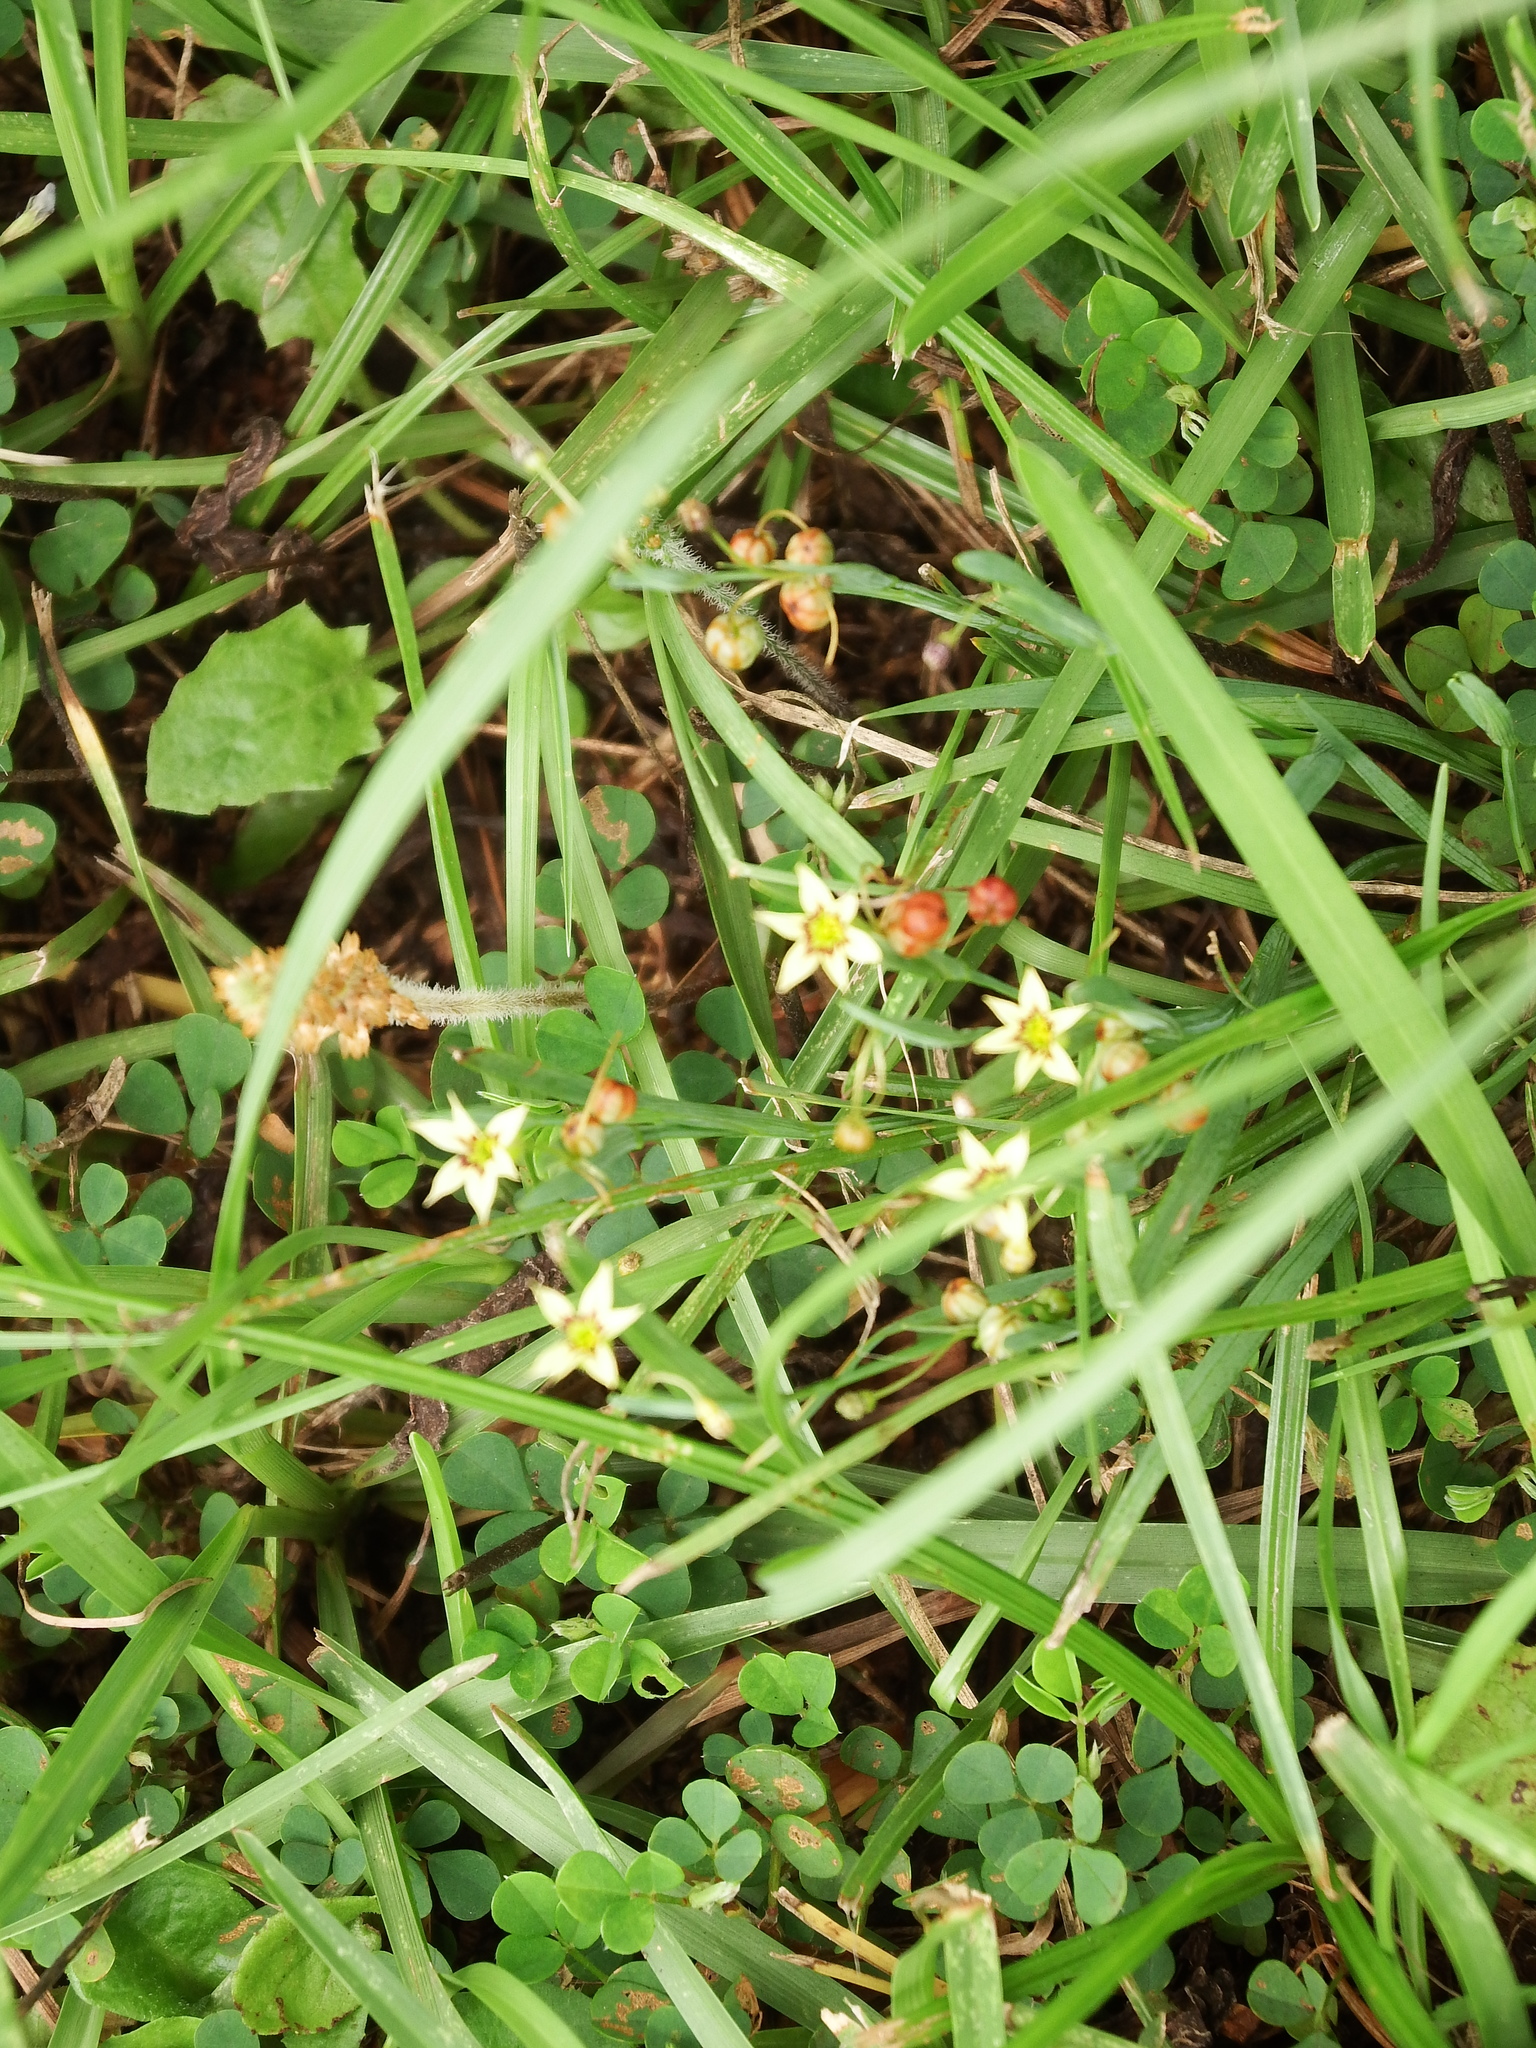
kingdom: Plantae
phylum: Tracheophyta
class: Liliopsida
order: Asparagales
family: Iridaceae
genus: Sisyrinchium
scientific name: Sisyrinchium micranthum
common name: Bermuda pigroot
